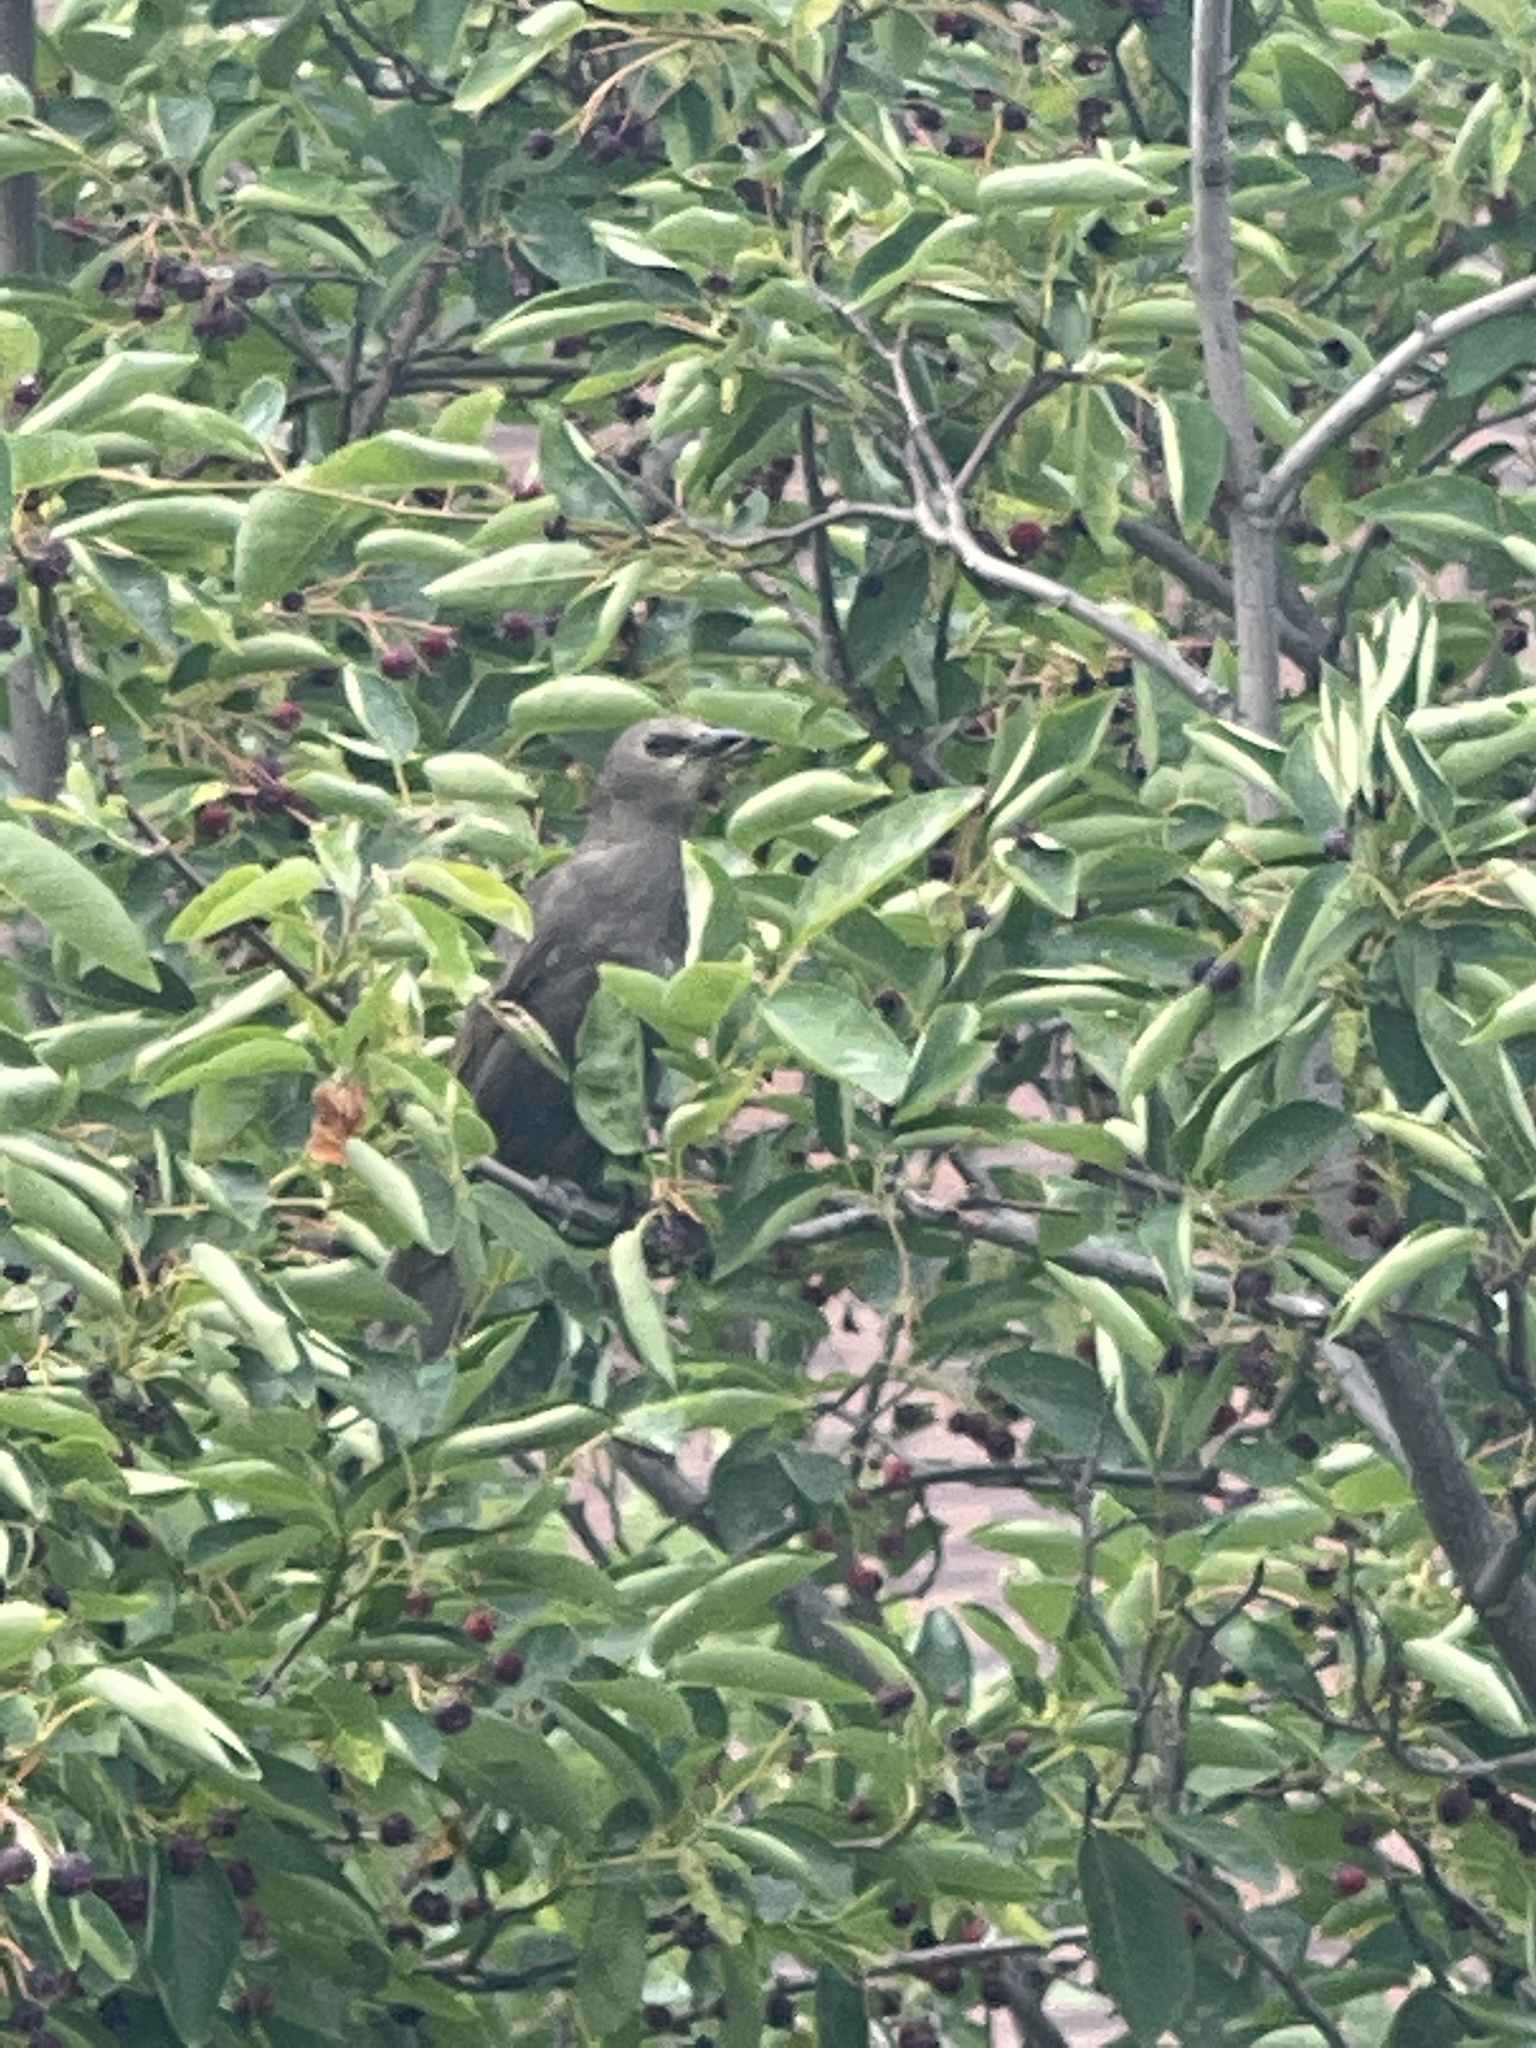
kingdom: Animalia
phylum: Chordata
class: Aves
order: Passeriformes
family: Sturnidae
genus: Sturnus
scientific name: Sturnus vulgaris
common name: Common starling
